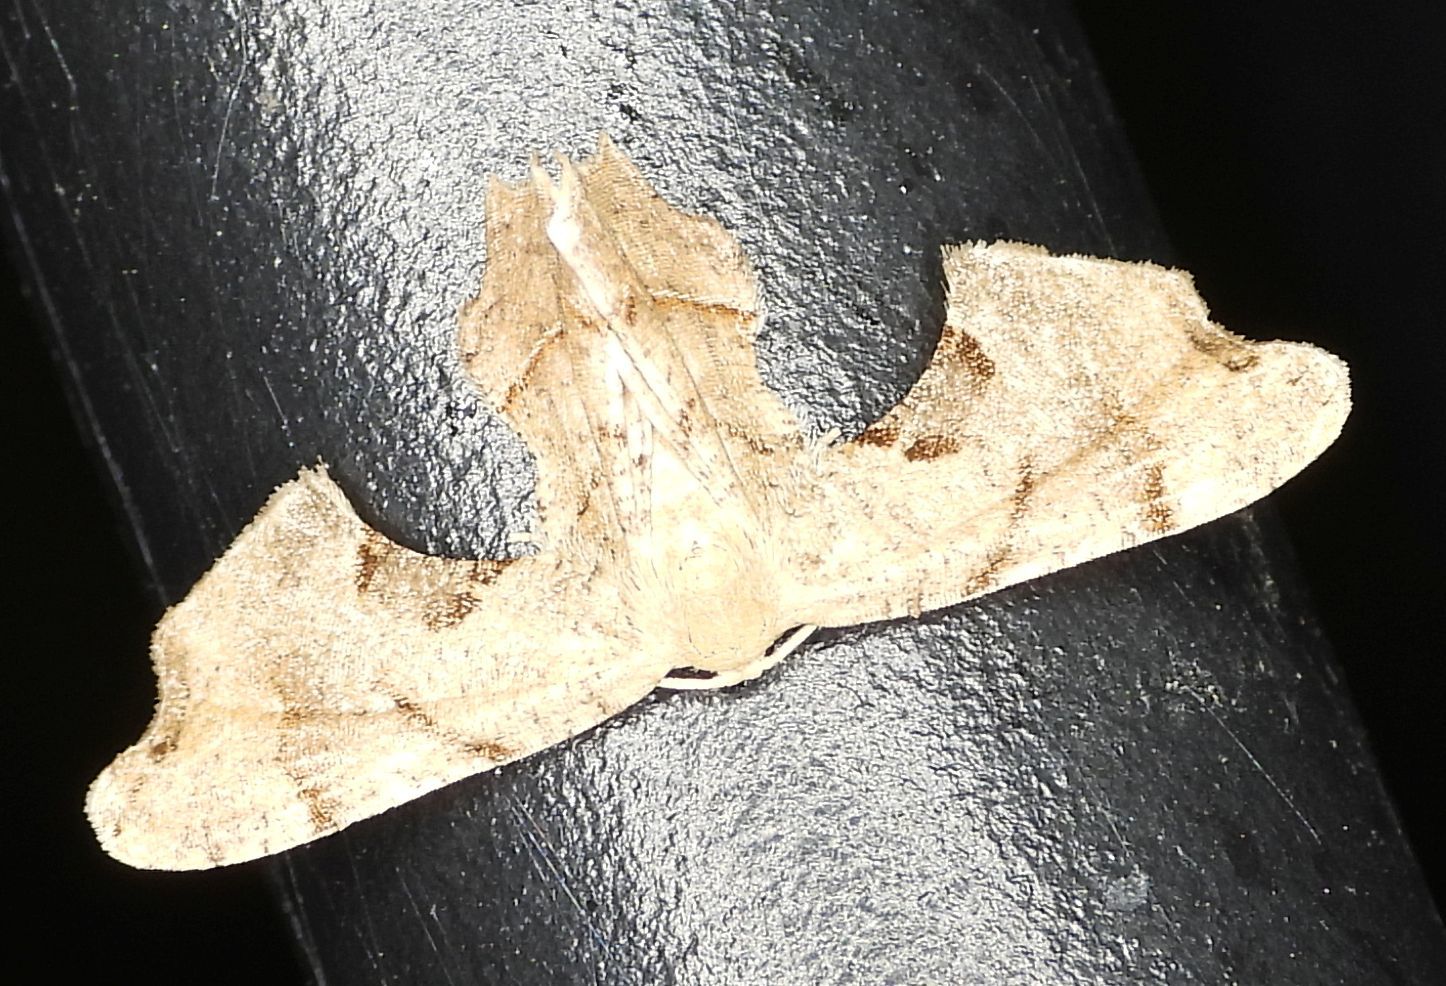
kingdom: Animalia
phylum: Arthropoda
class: Insecta
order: Lepidoptera
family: Uraniidae
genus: Epiplema
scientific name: Epiplema Calledapteryx dryopterata
